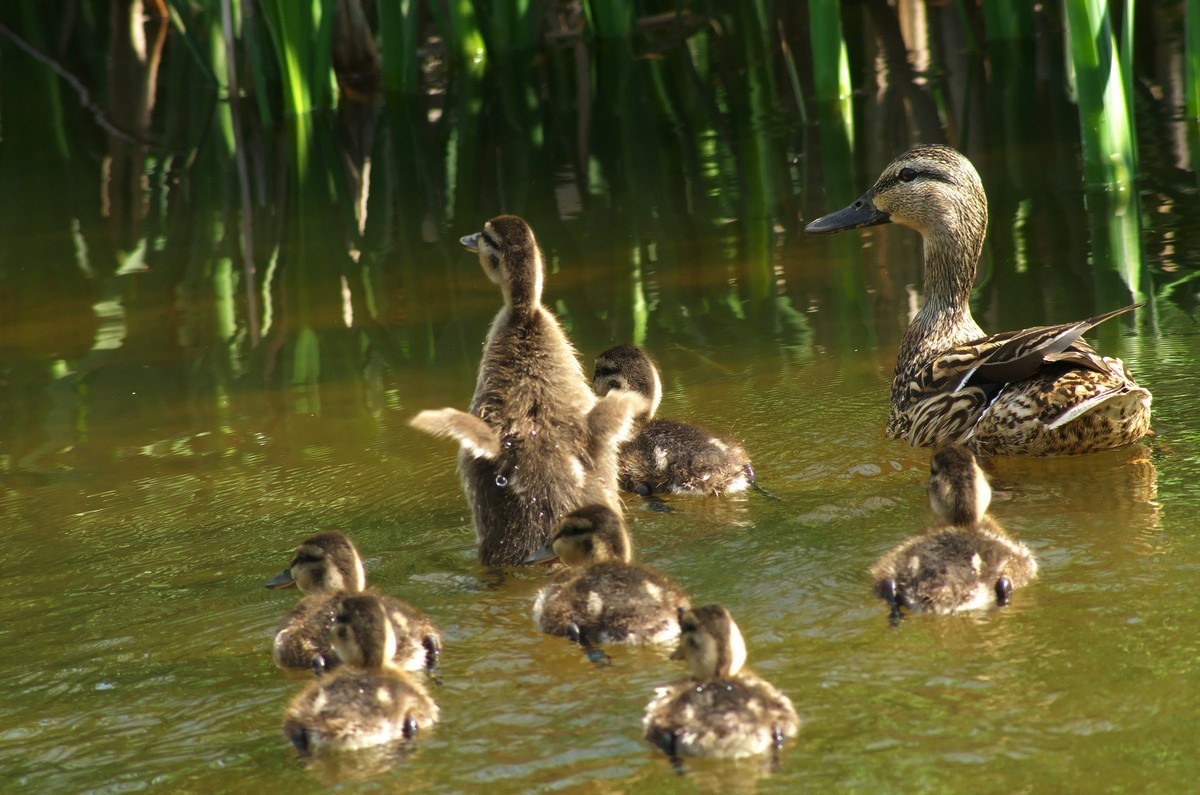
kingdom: Animalia
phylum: Chordata
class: Aves
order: Anseriformes
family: Anatidae
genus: Anas
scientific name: Anas platyrhynchos
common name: Mallard
